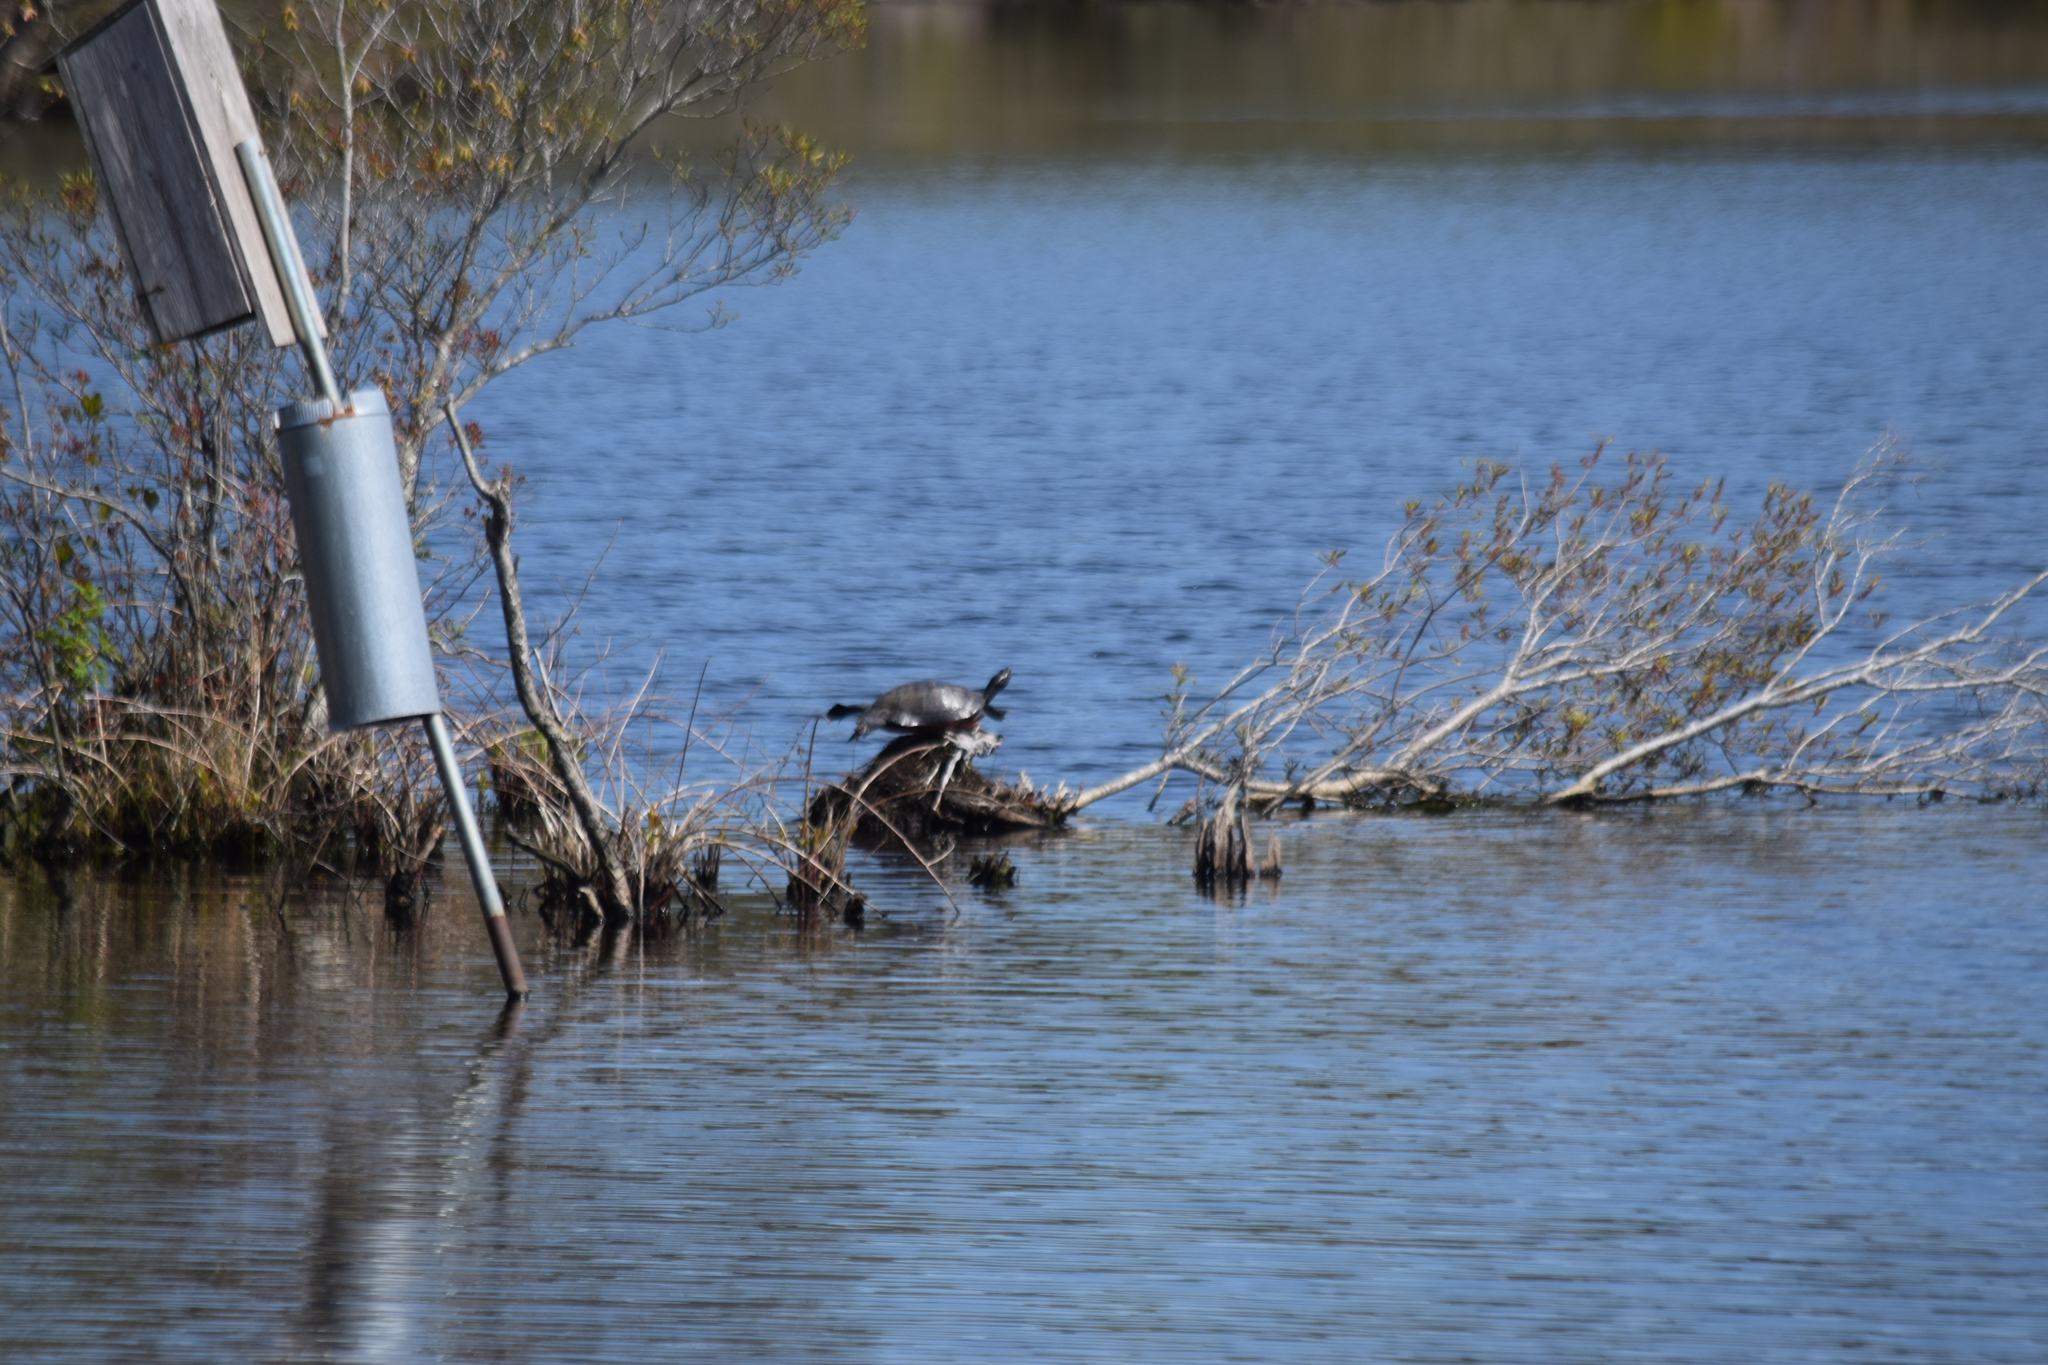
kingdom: Animalia
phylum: Chordata
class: Testudines
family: Emydidae
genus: Pseudemys
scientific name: Pseudemys rubriventris
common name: American red-bellied turtle
